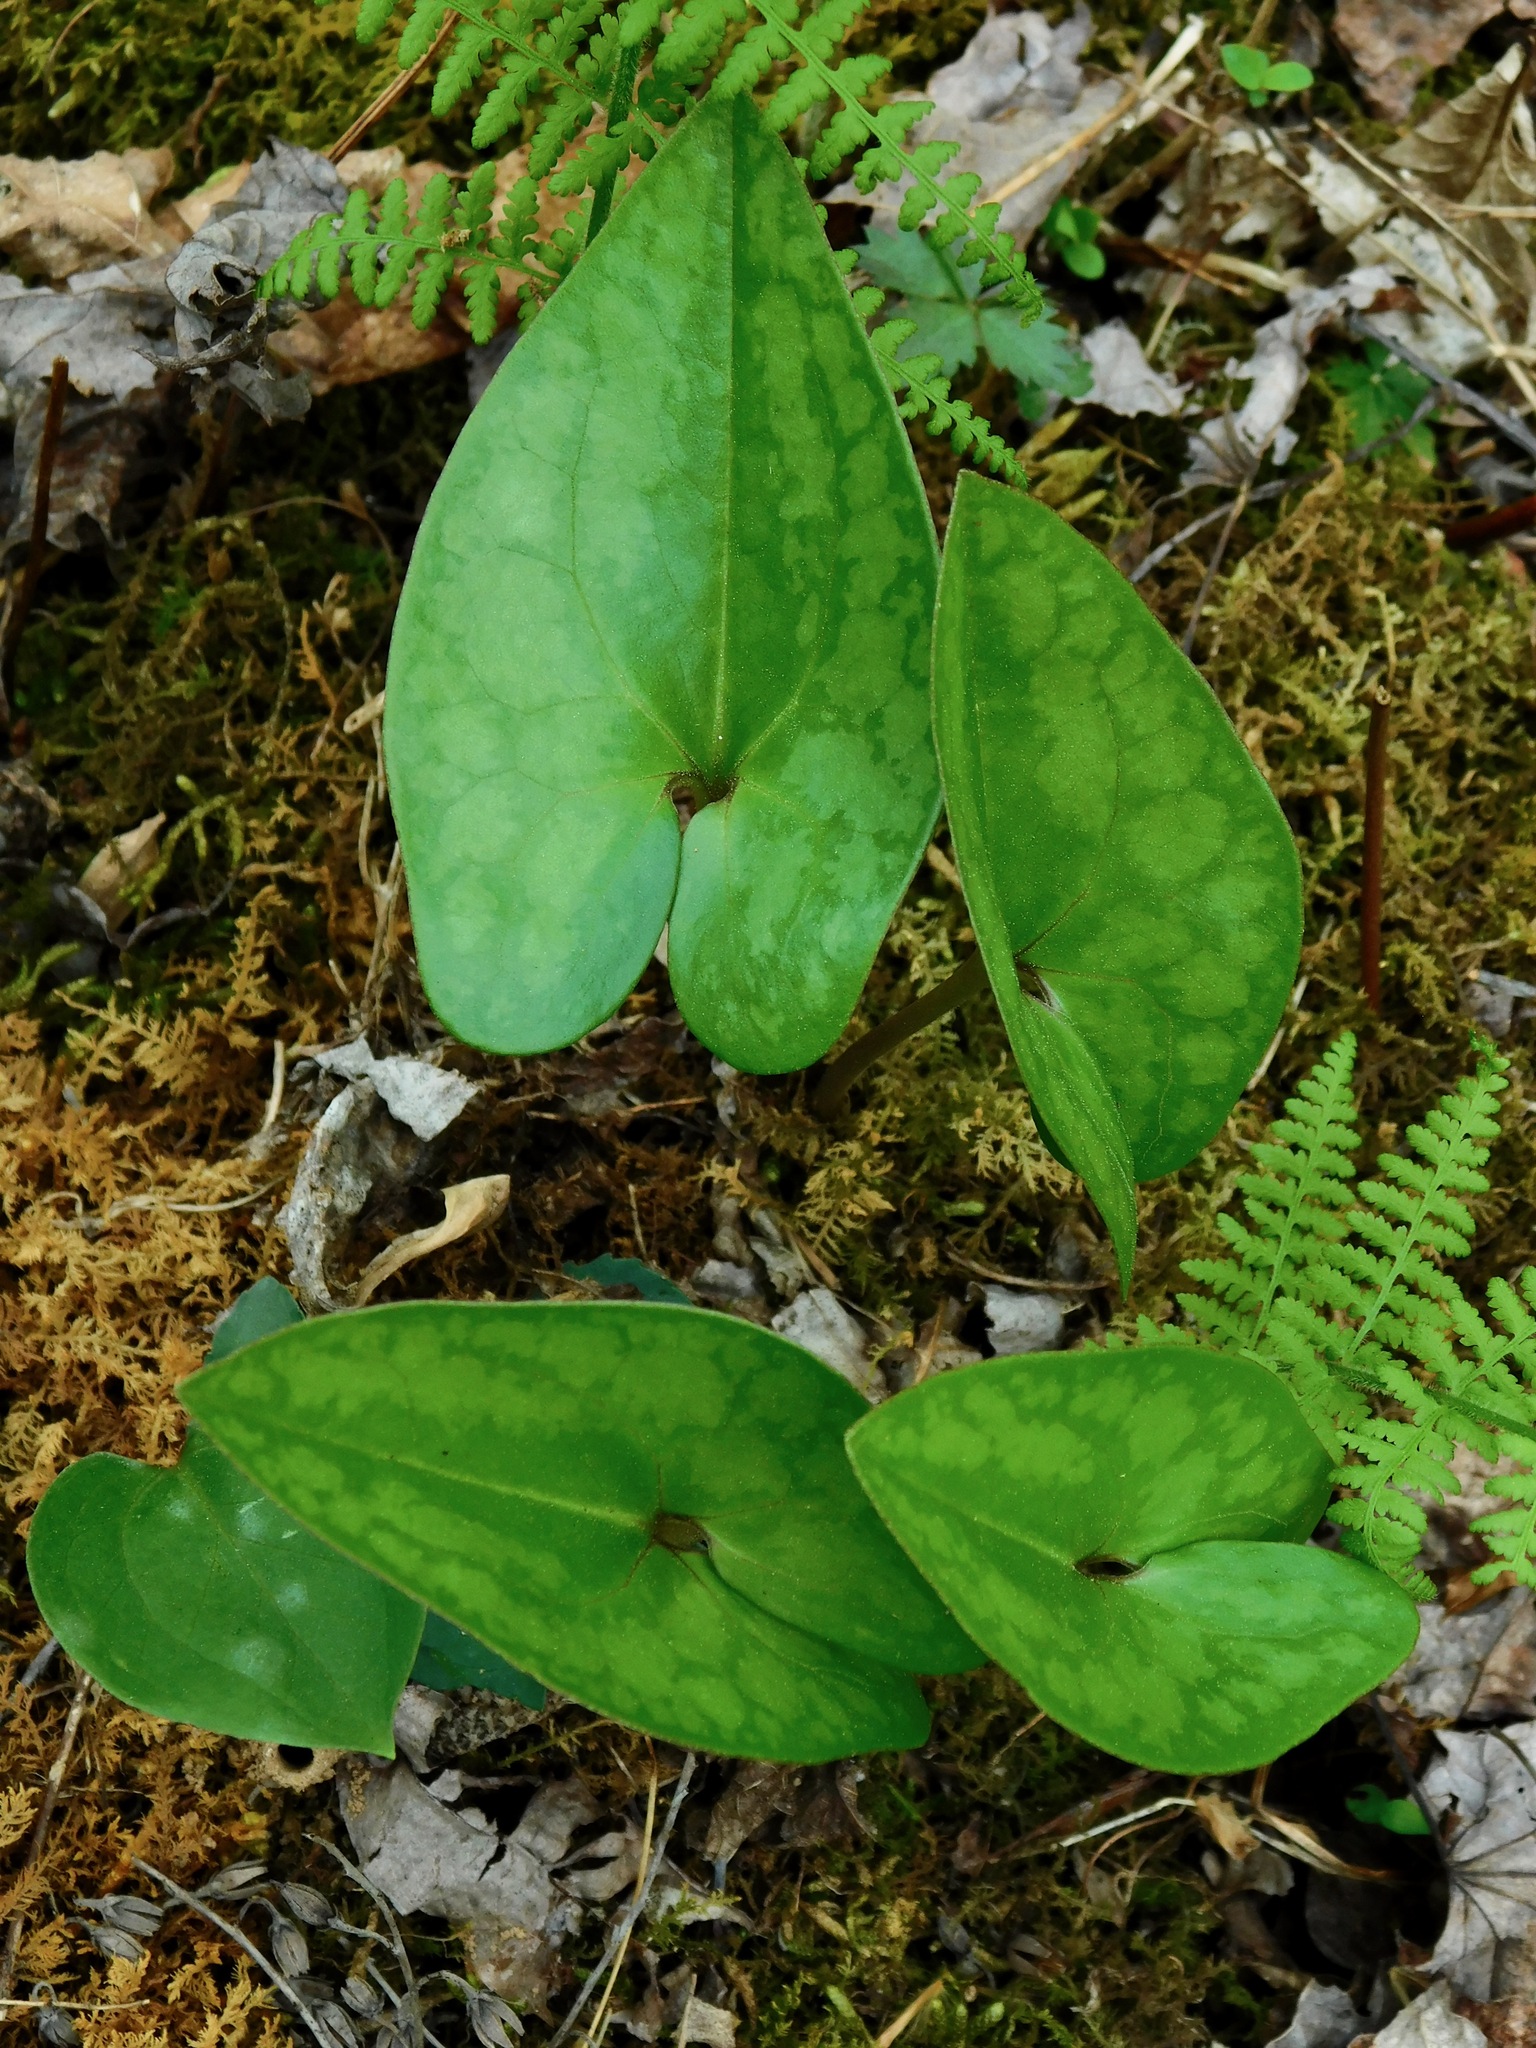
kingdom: Plantae
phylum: Tracheophyta
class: Magnoliopsida
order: Piperales
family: Aristolochiaceae
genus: Hexastylis
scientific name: Hexastylis arifolia
